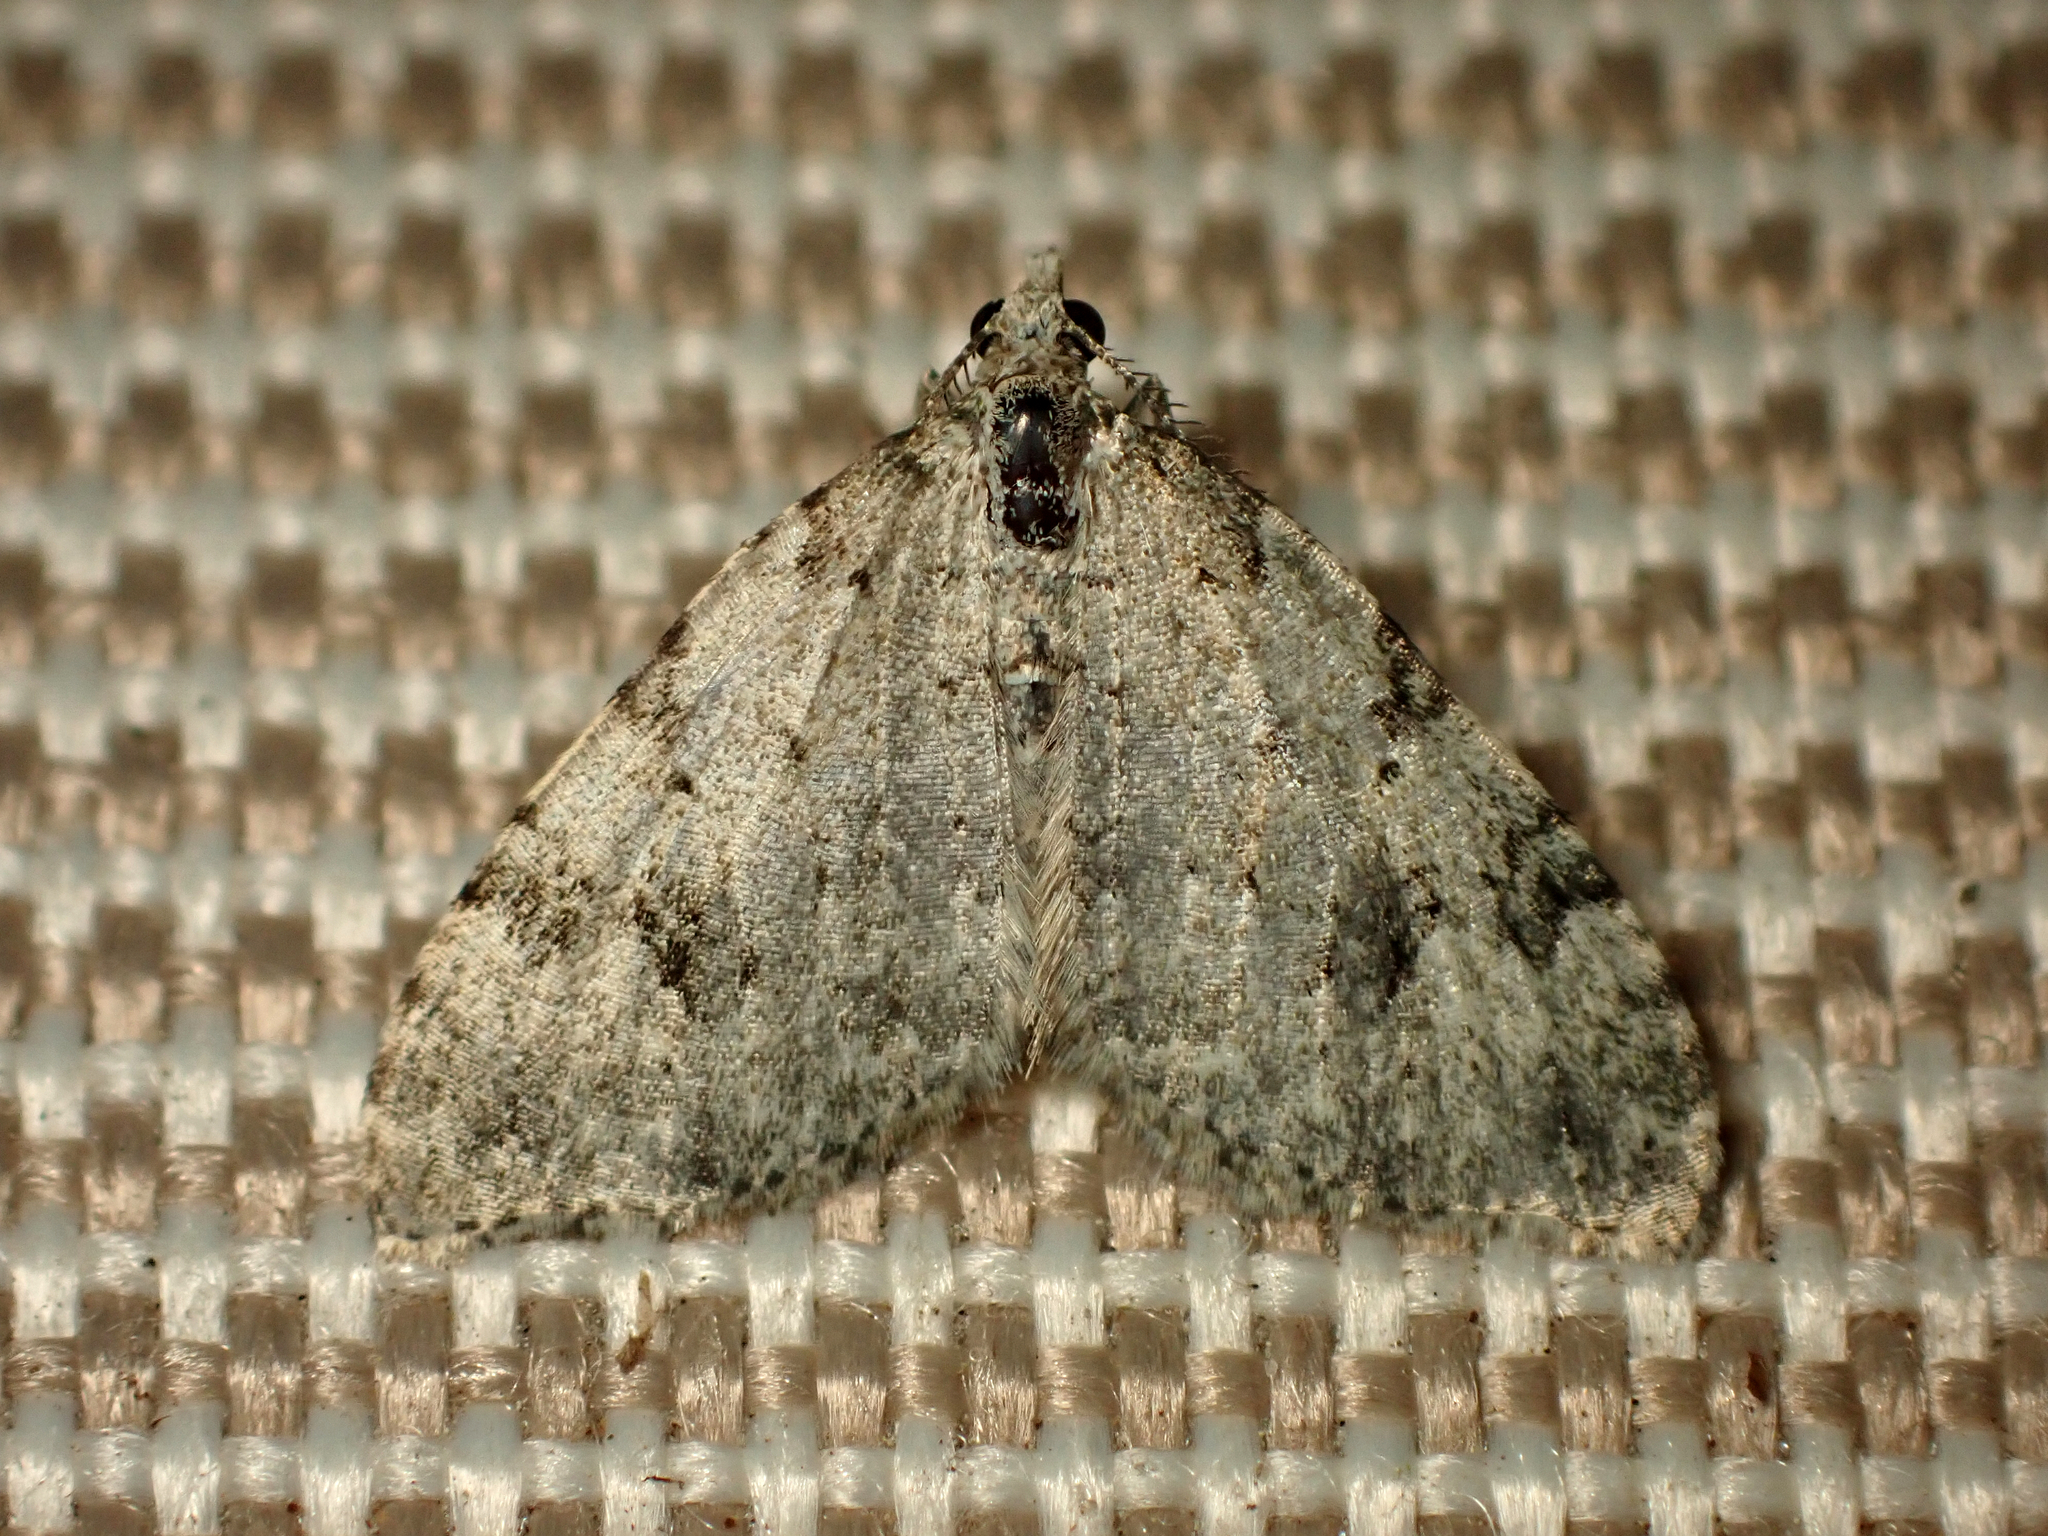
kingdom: Animalia
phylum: Arthropoda
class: Insecta
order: Lepidoptera
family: Geometridae
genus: Helastia
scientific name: Helastia cinerearia
